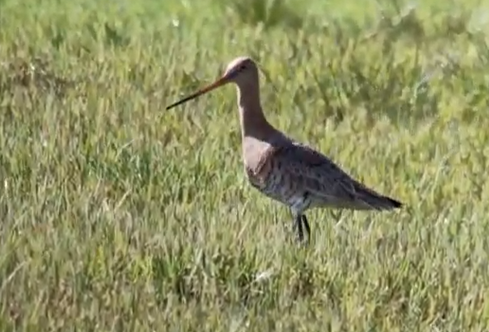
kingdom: Animalia
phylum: Chordata
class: Aves
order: Charadriiformes
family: Scolopacidae
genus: Limosa
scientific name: Limosa limosa
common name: Black-tailed godwit
